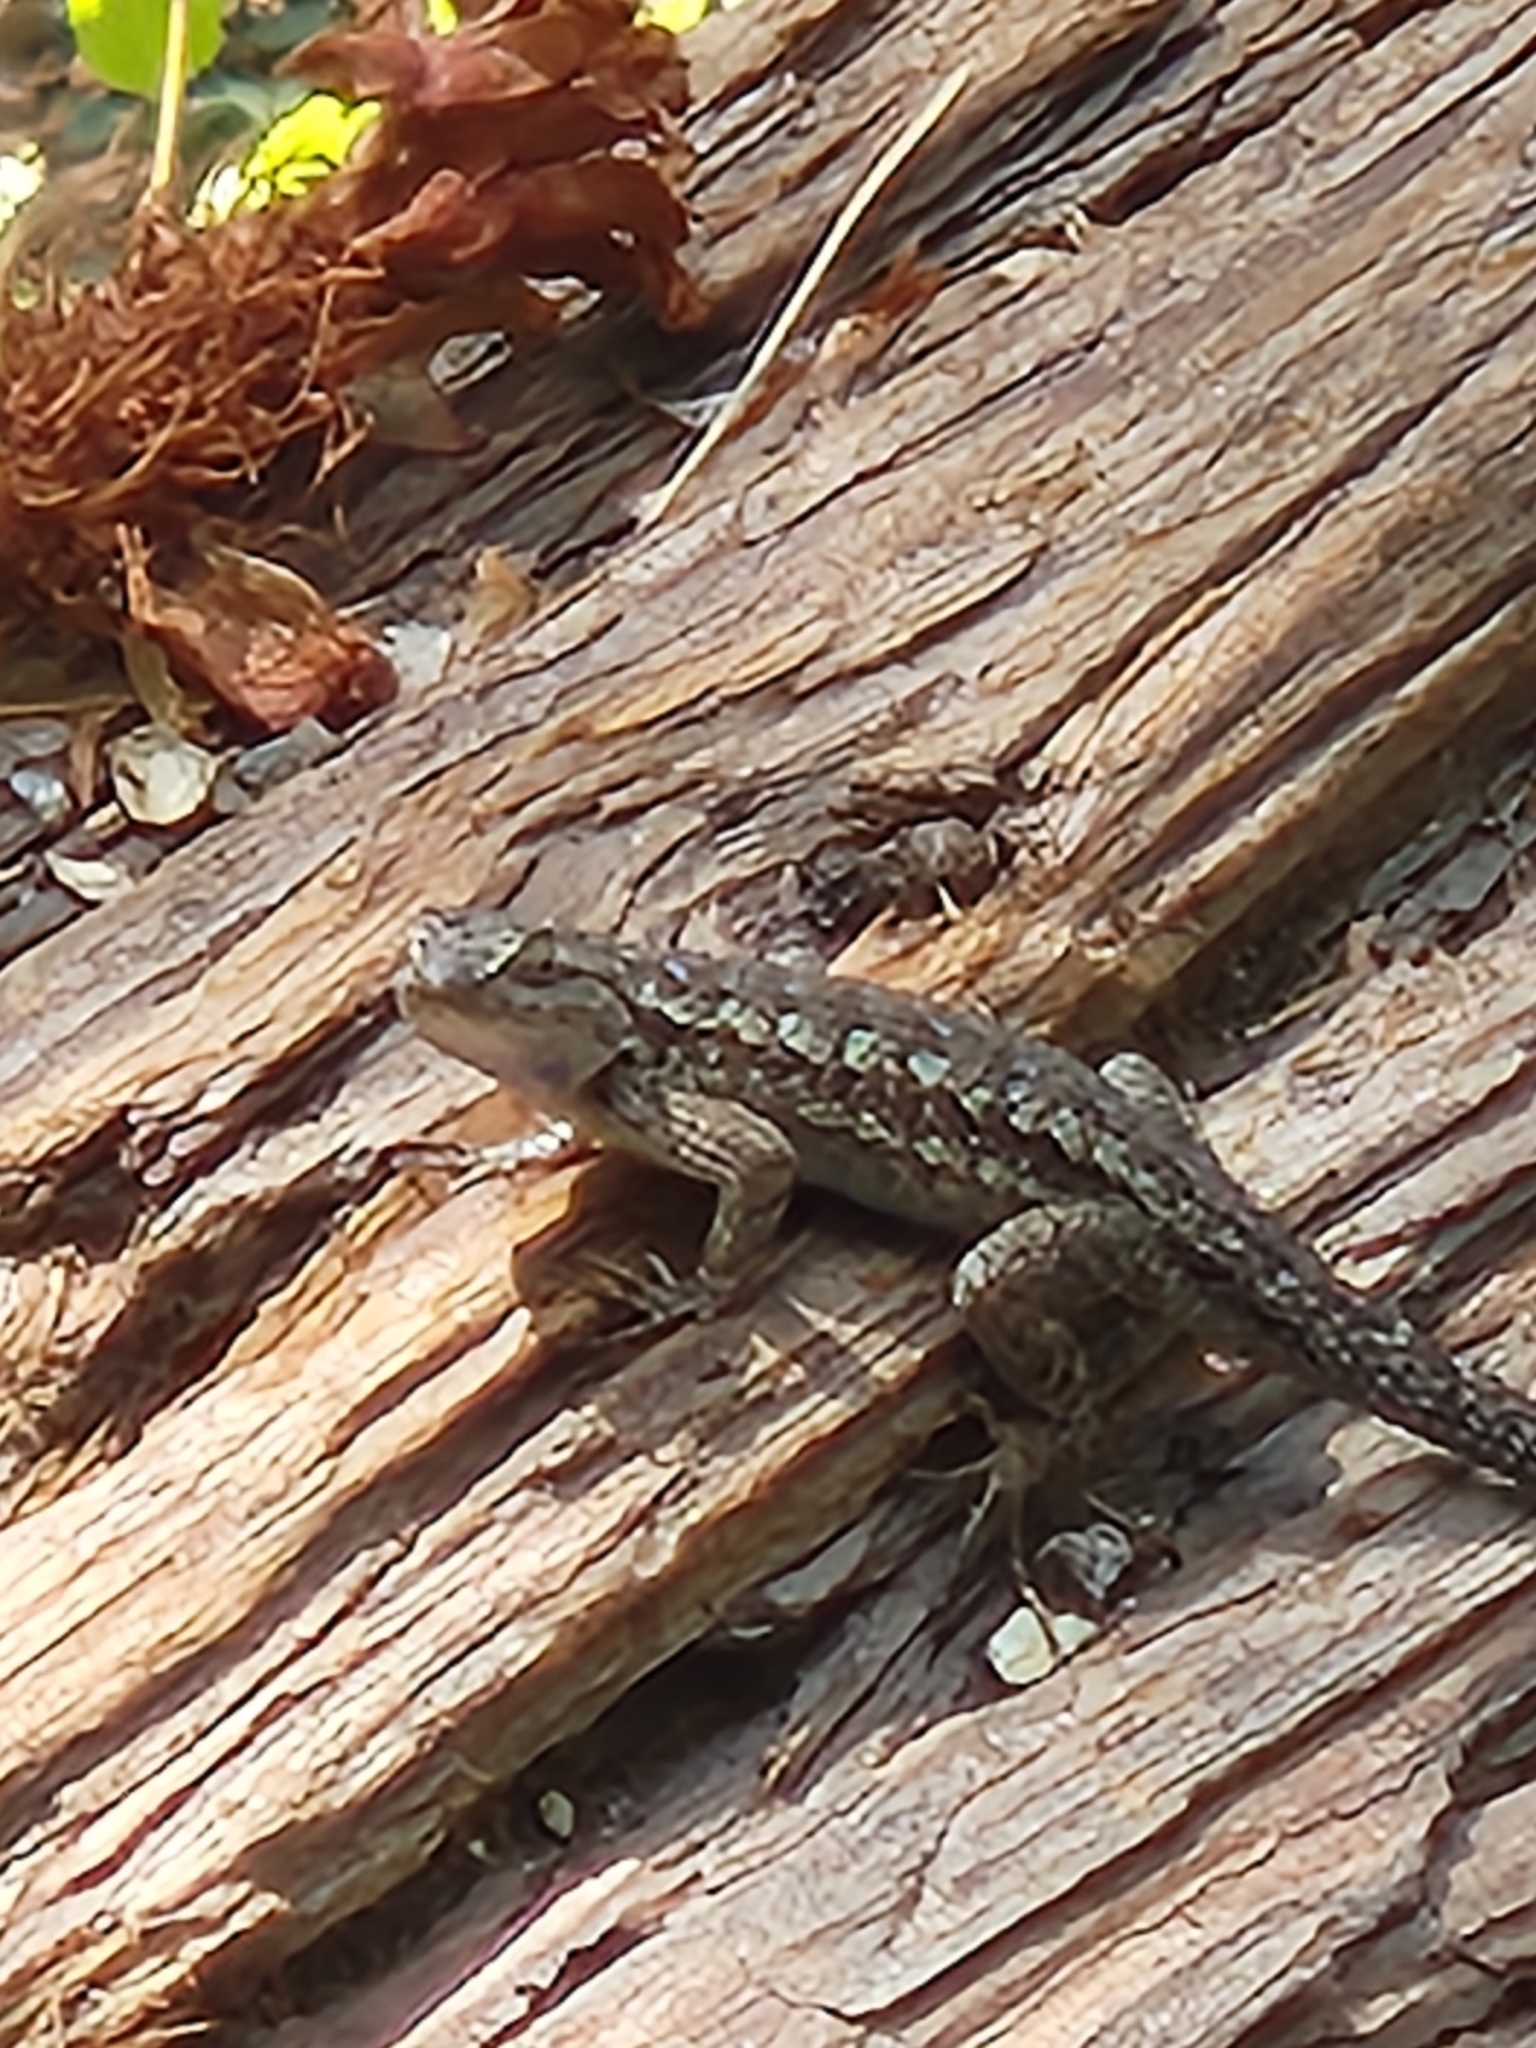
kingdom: Animalia
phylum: Chordata
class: Squamata
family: Phrynosomatidae
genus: Sceloporus
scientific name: Sceloporus occidentalis
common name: Western fence lizard
